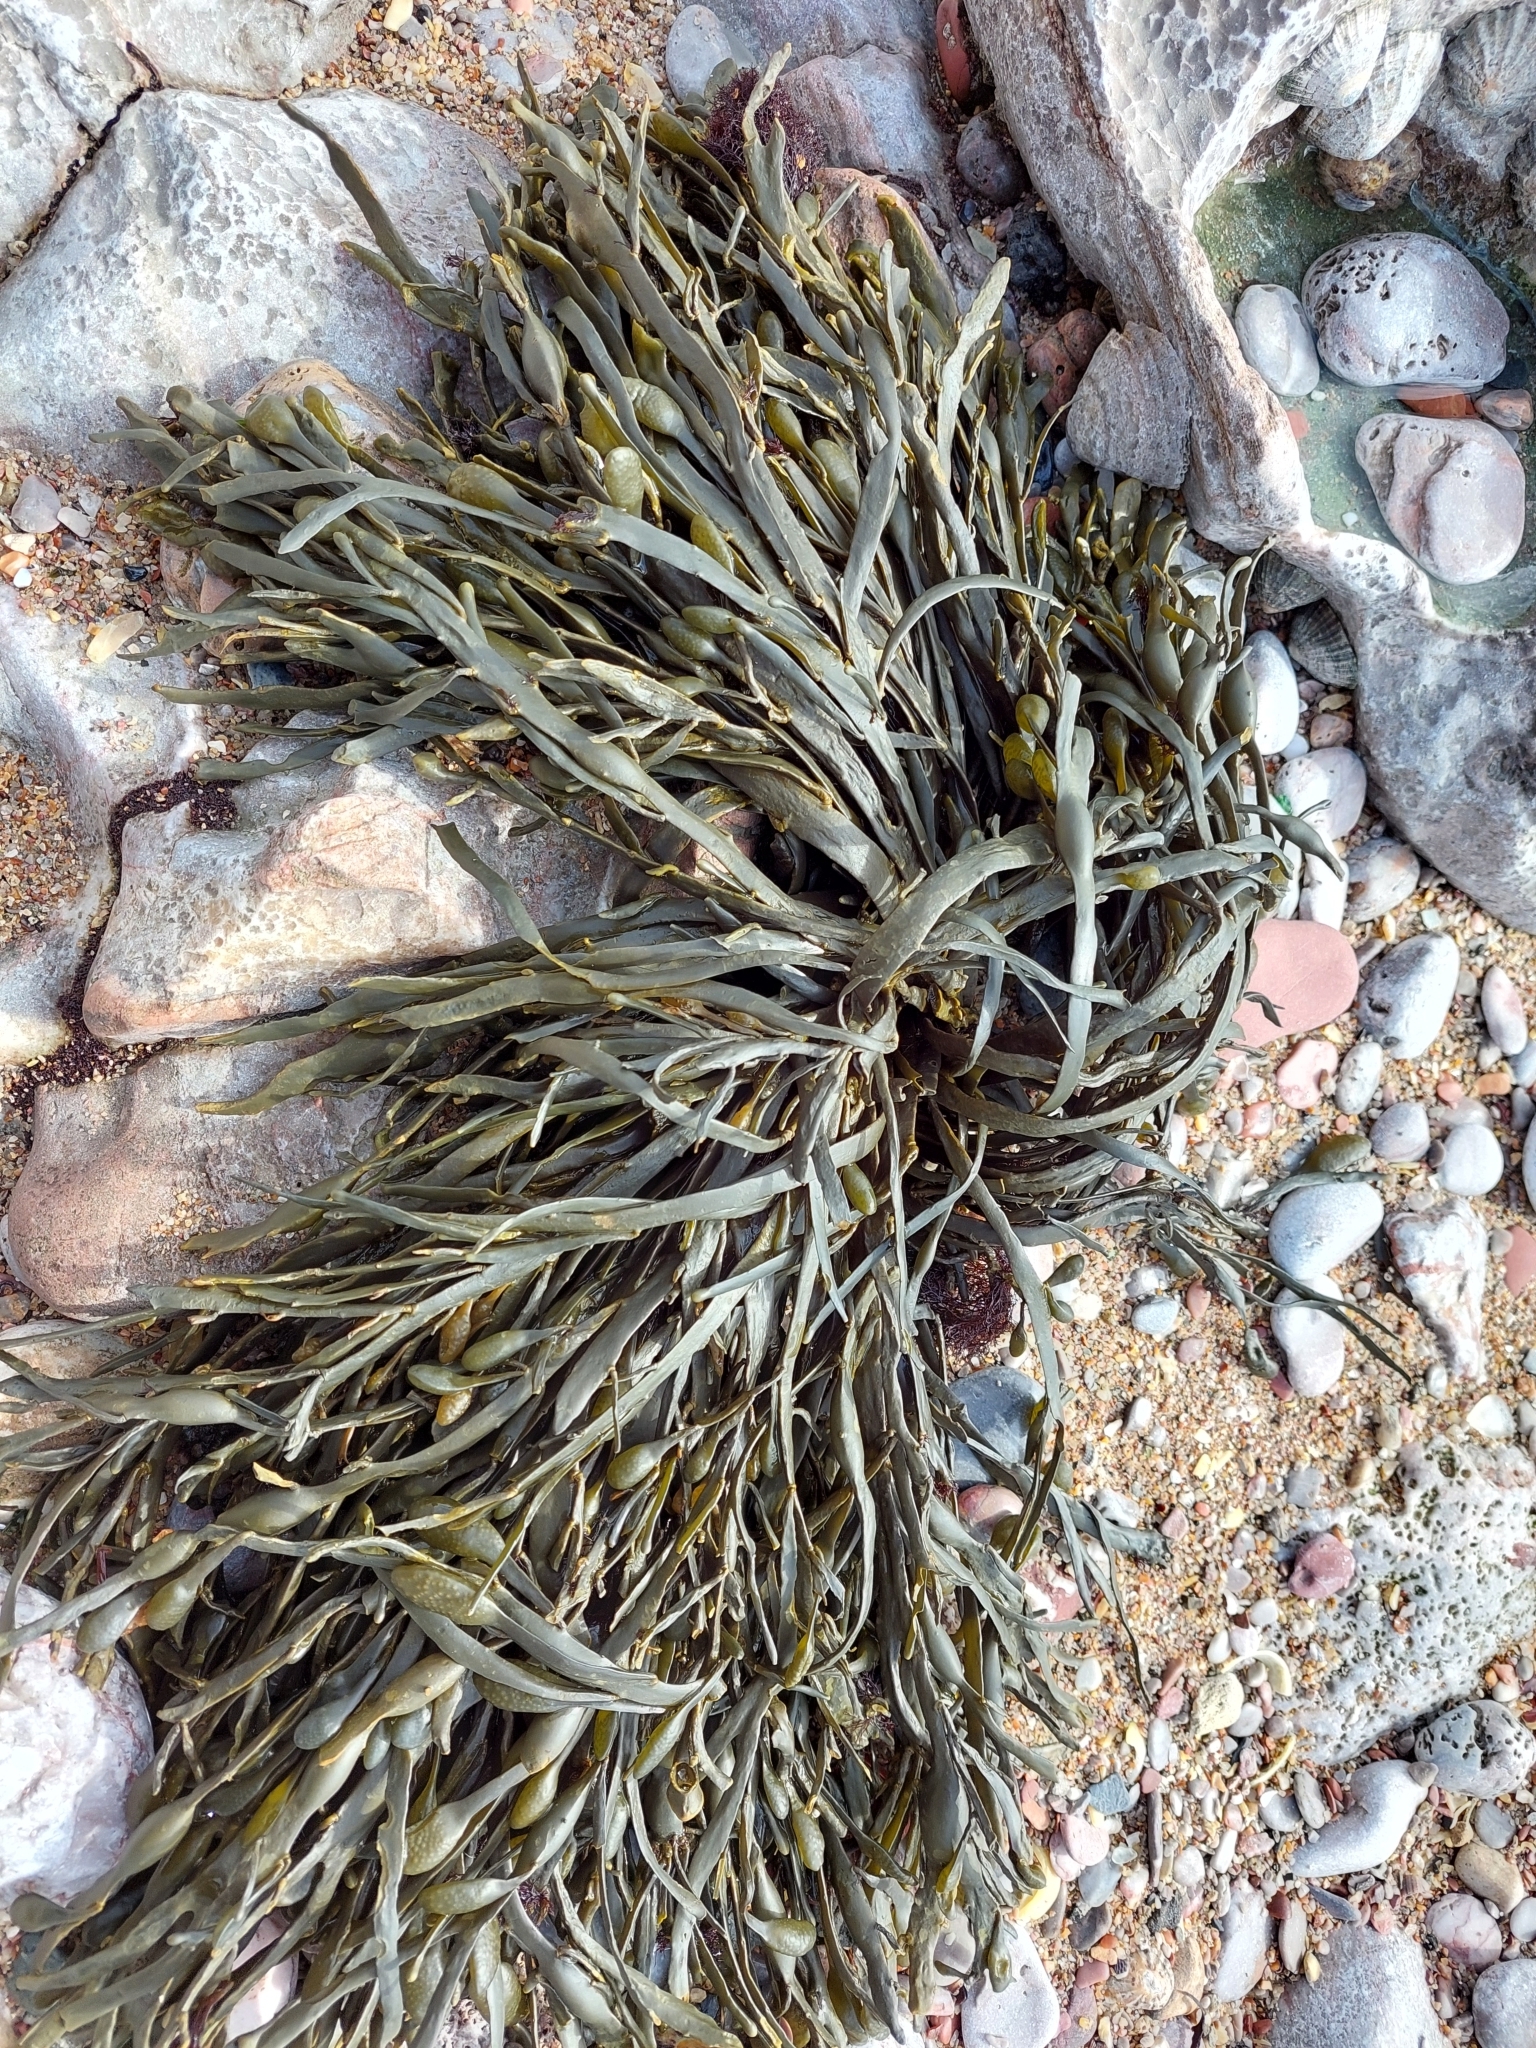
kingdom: Chromista
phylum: Ochrophyta
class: Phaeophyceae
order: Fucales
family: Fucaceae
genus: Ascophyllum
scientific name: Ascophyllum nodosum
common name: Knotted wrack
